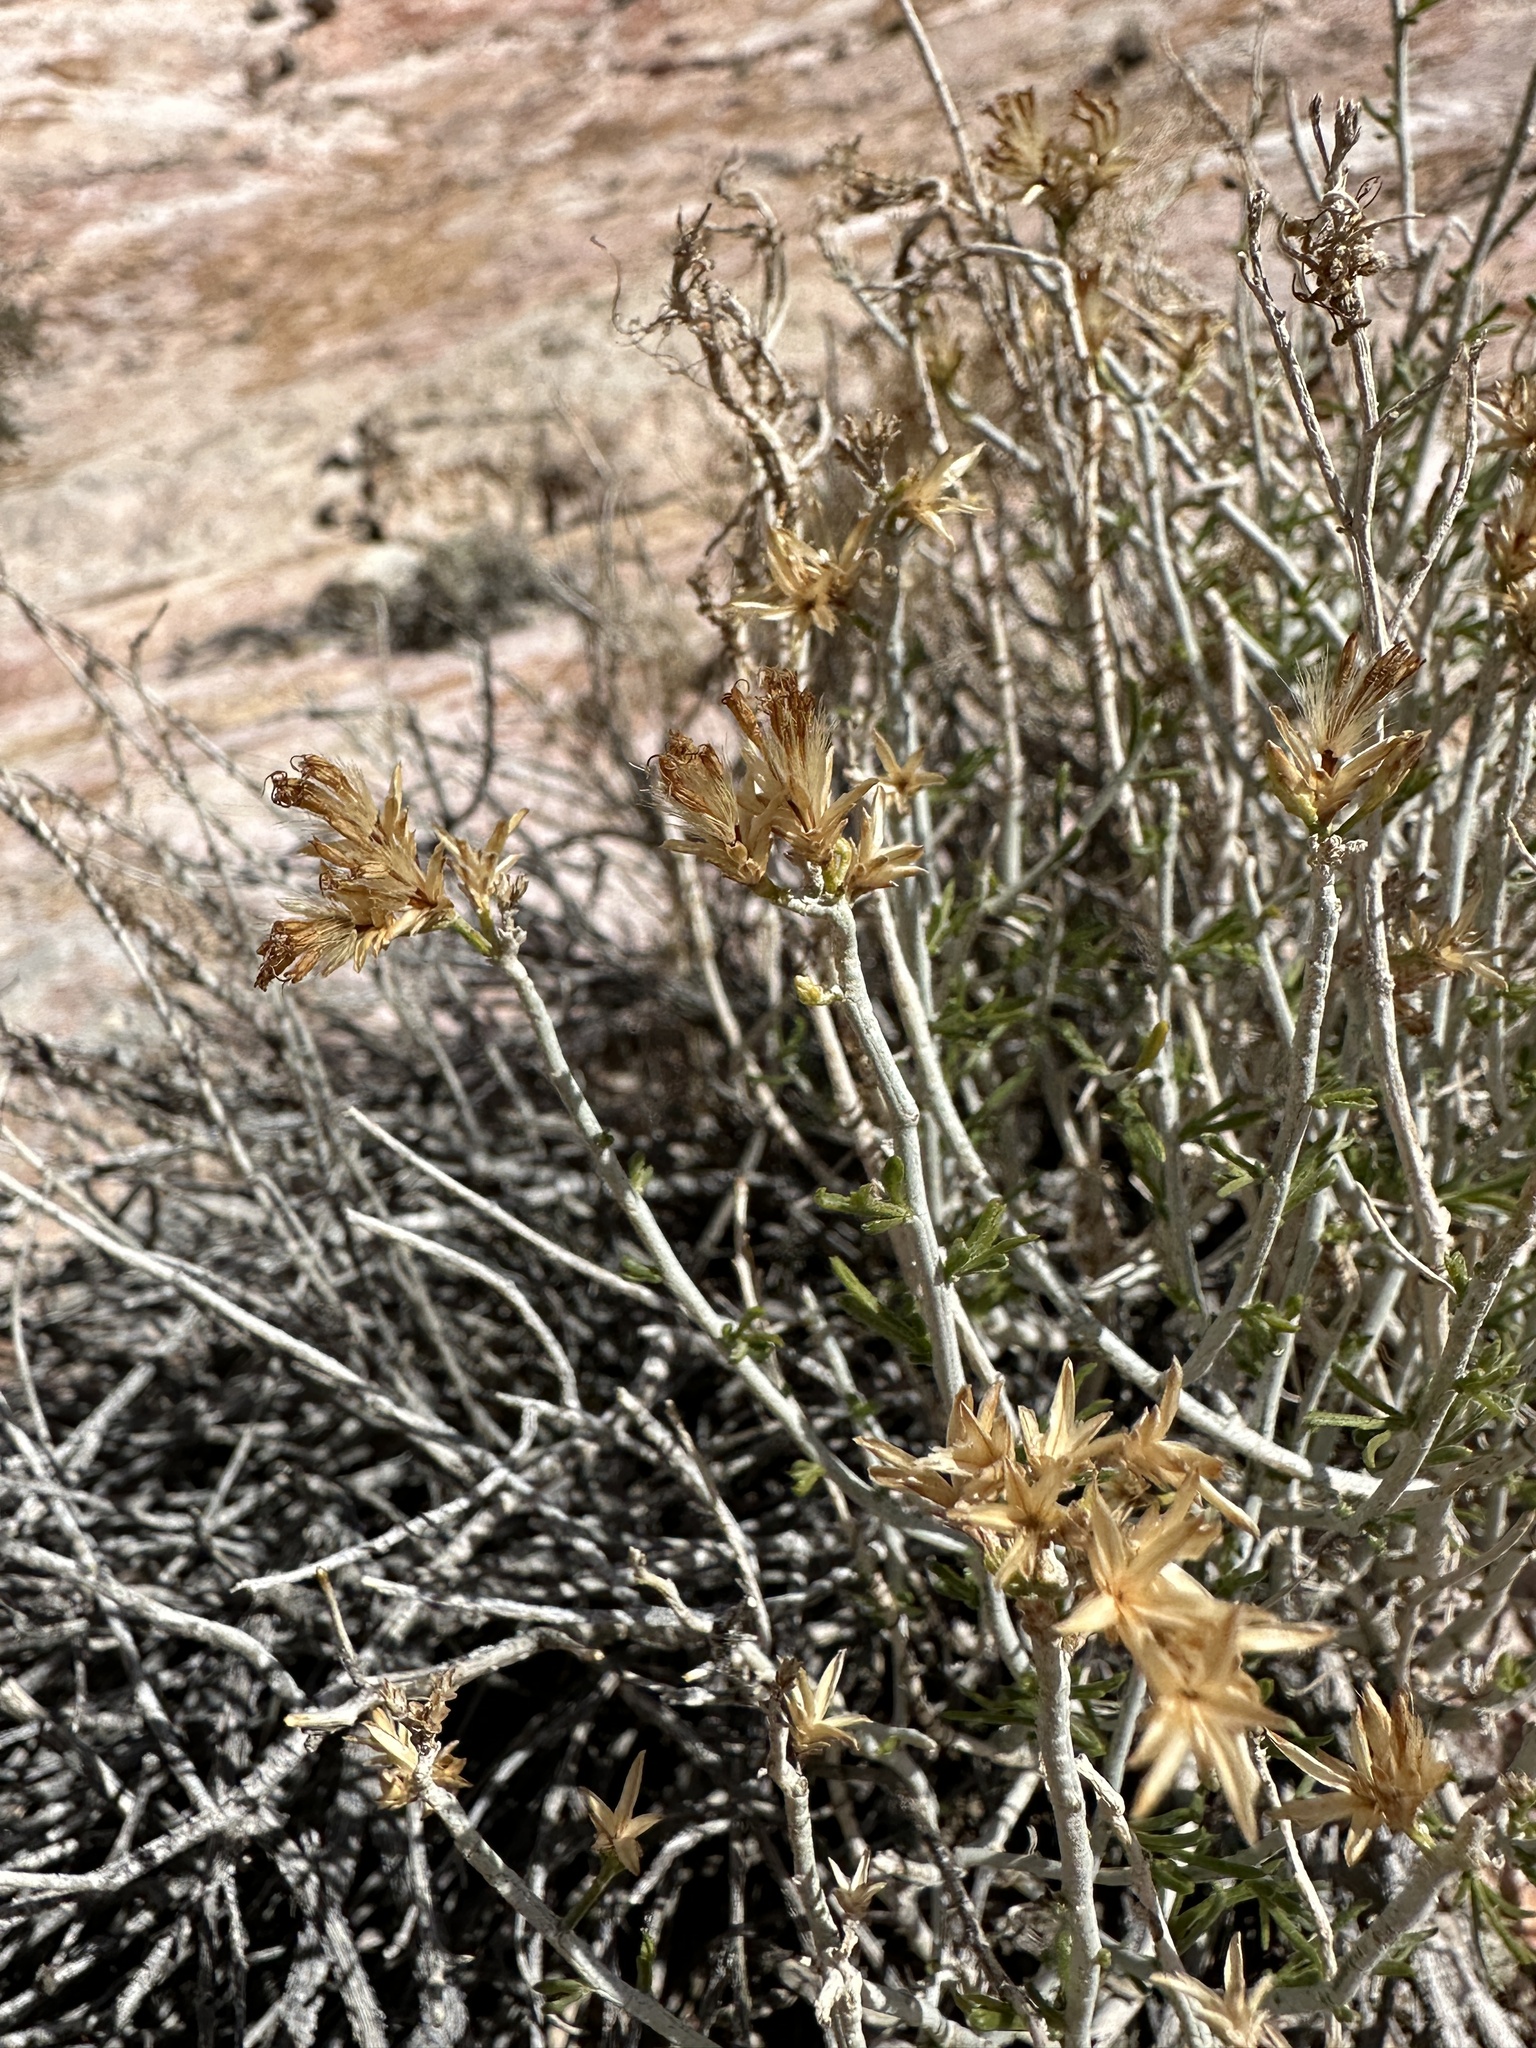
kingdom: Plantae
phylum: Tracheophyta
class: Magnoliopsida
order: Asterales
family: Asteraceae
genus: Ericameria
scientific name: Ericameria nauseosa
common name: Rubber rabbitbrush
